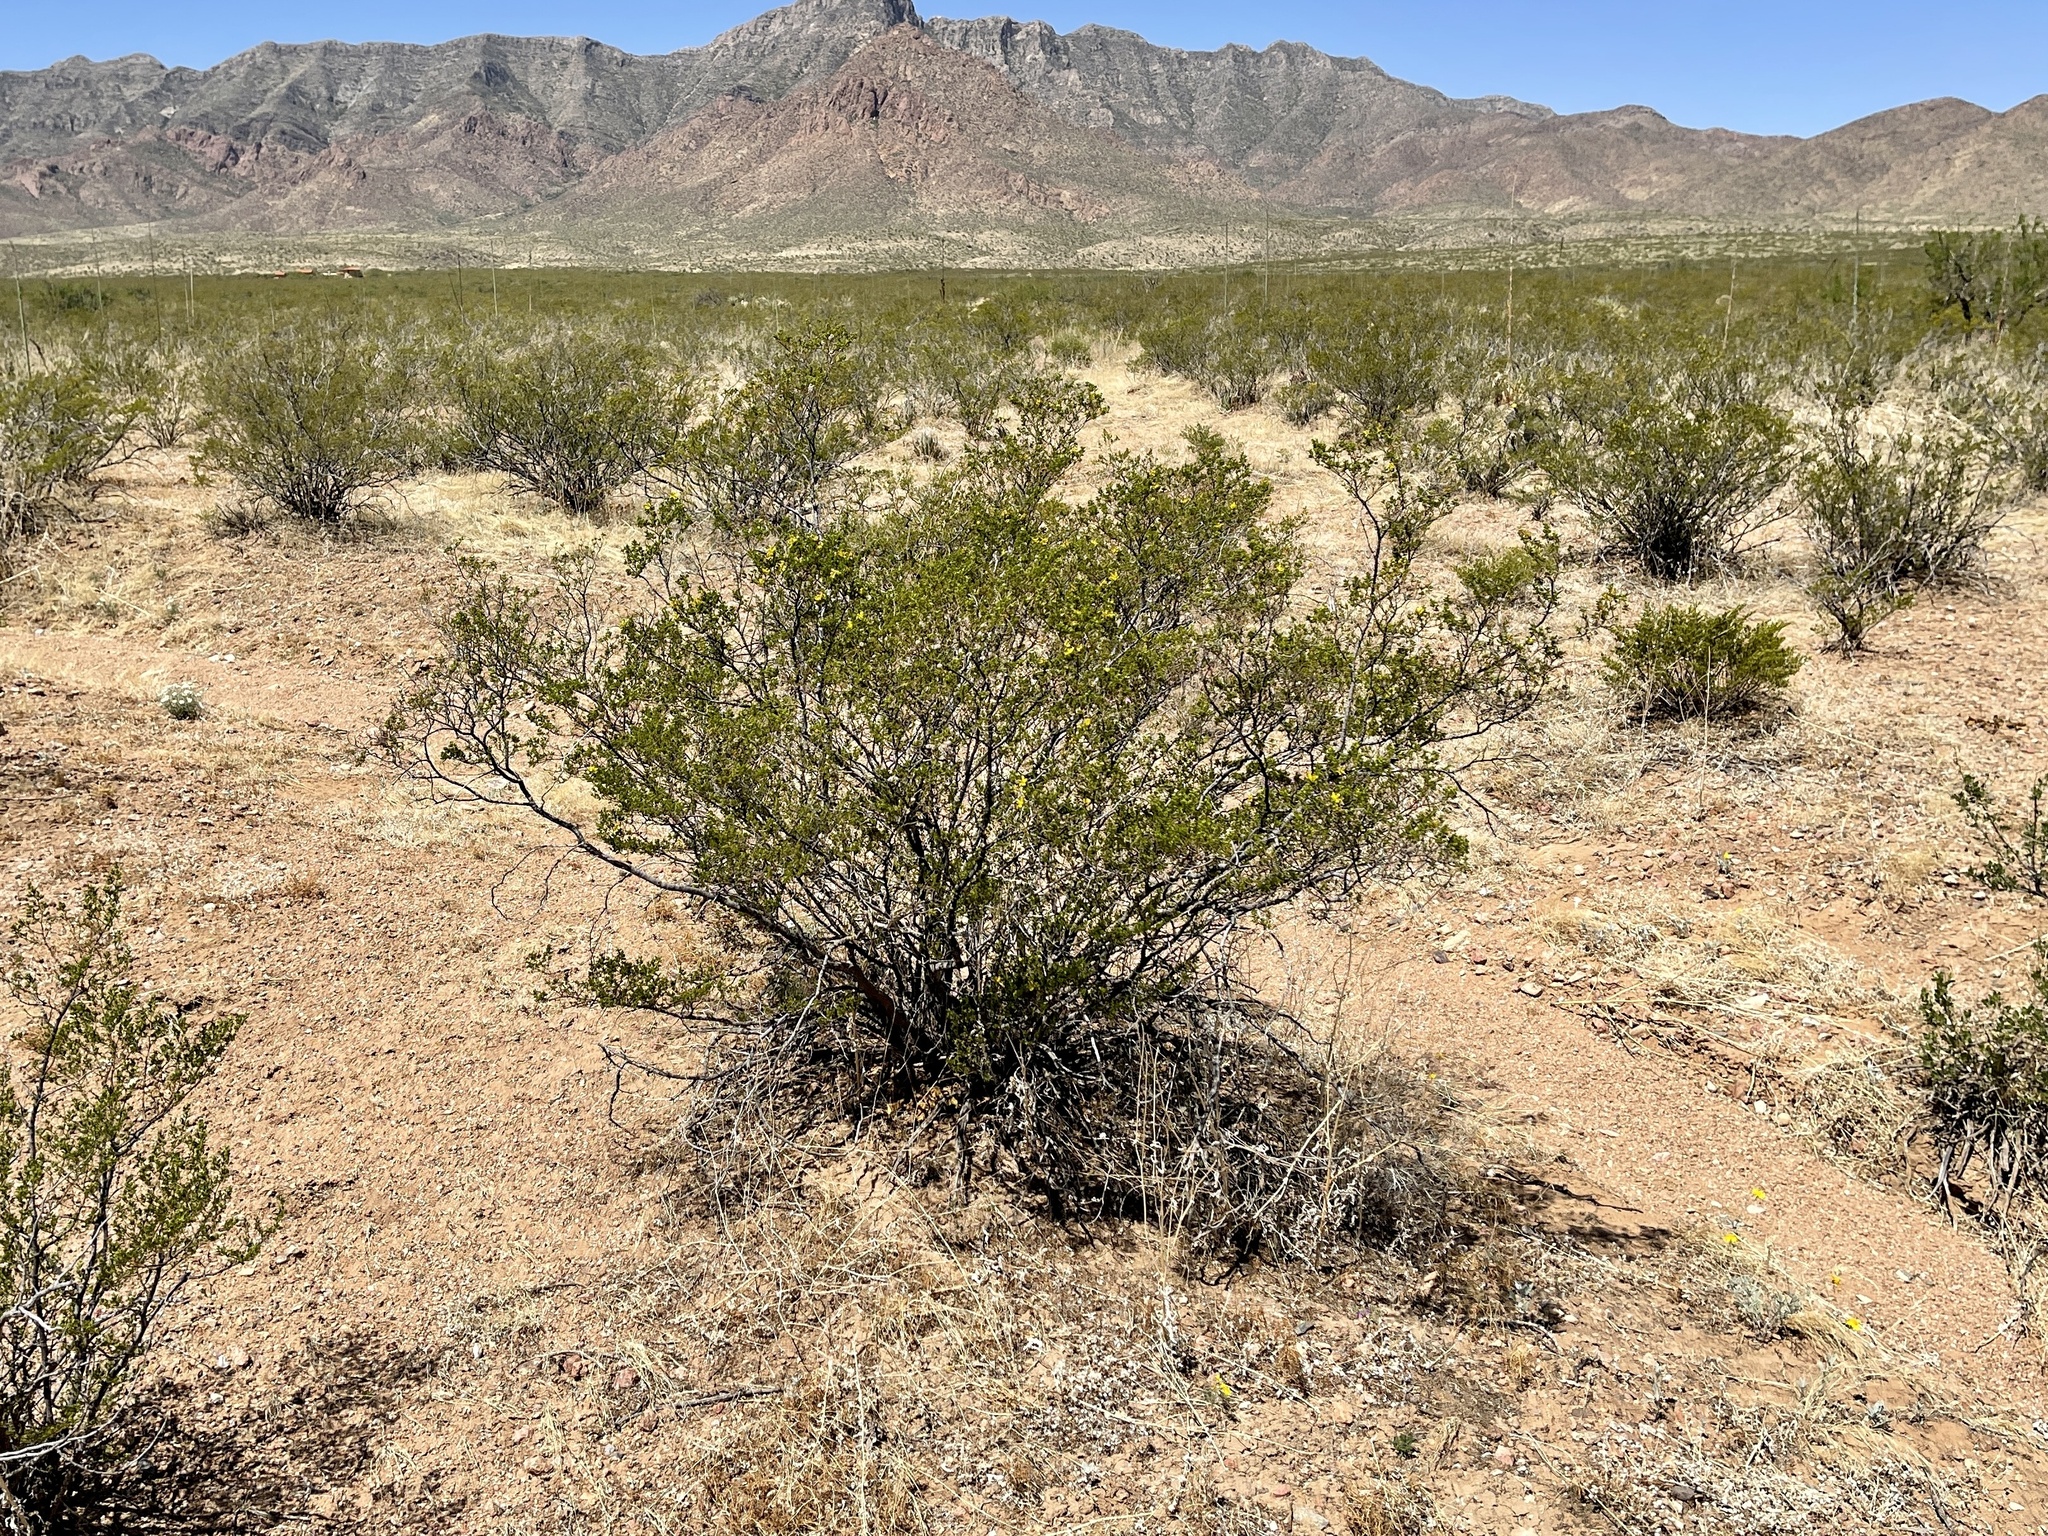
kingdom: Plantae
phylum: Tracheophyta
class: Magnoliopsida
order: Zygophyllales
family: Zygophyllaceae
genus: Larrea
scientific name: Larrea tridentata
